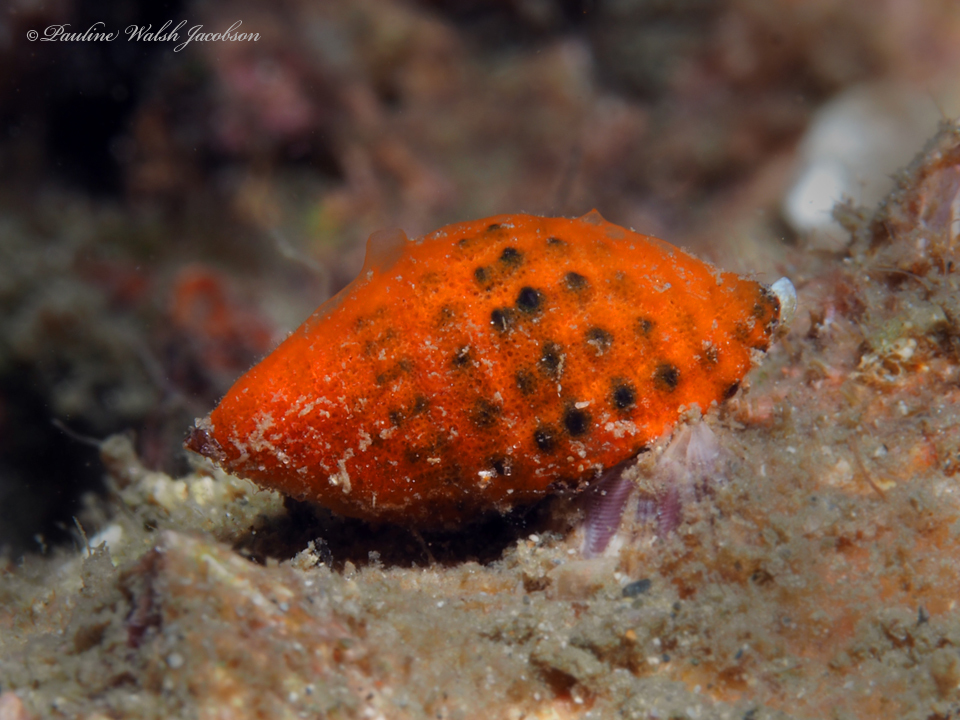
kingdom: Animalia
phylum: Mollusca
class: Gastropoda
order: Neogastropoda
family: Muricidae
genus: Claremontiella
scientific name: Claremontiella nodulosa
